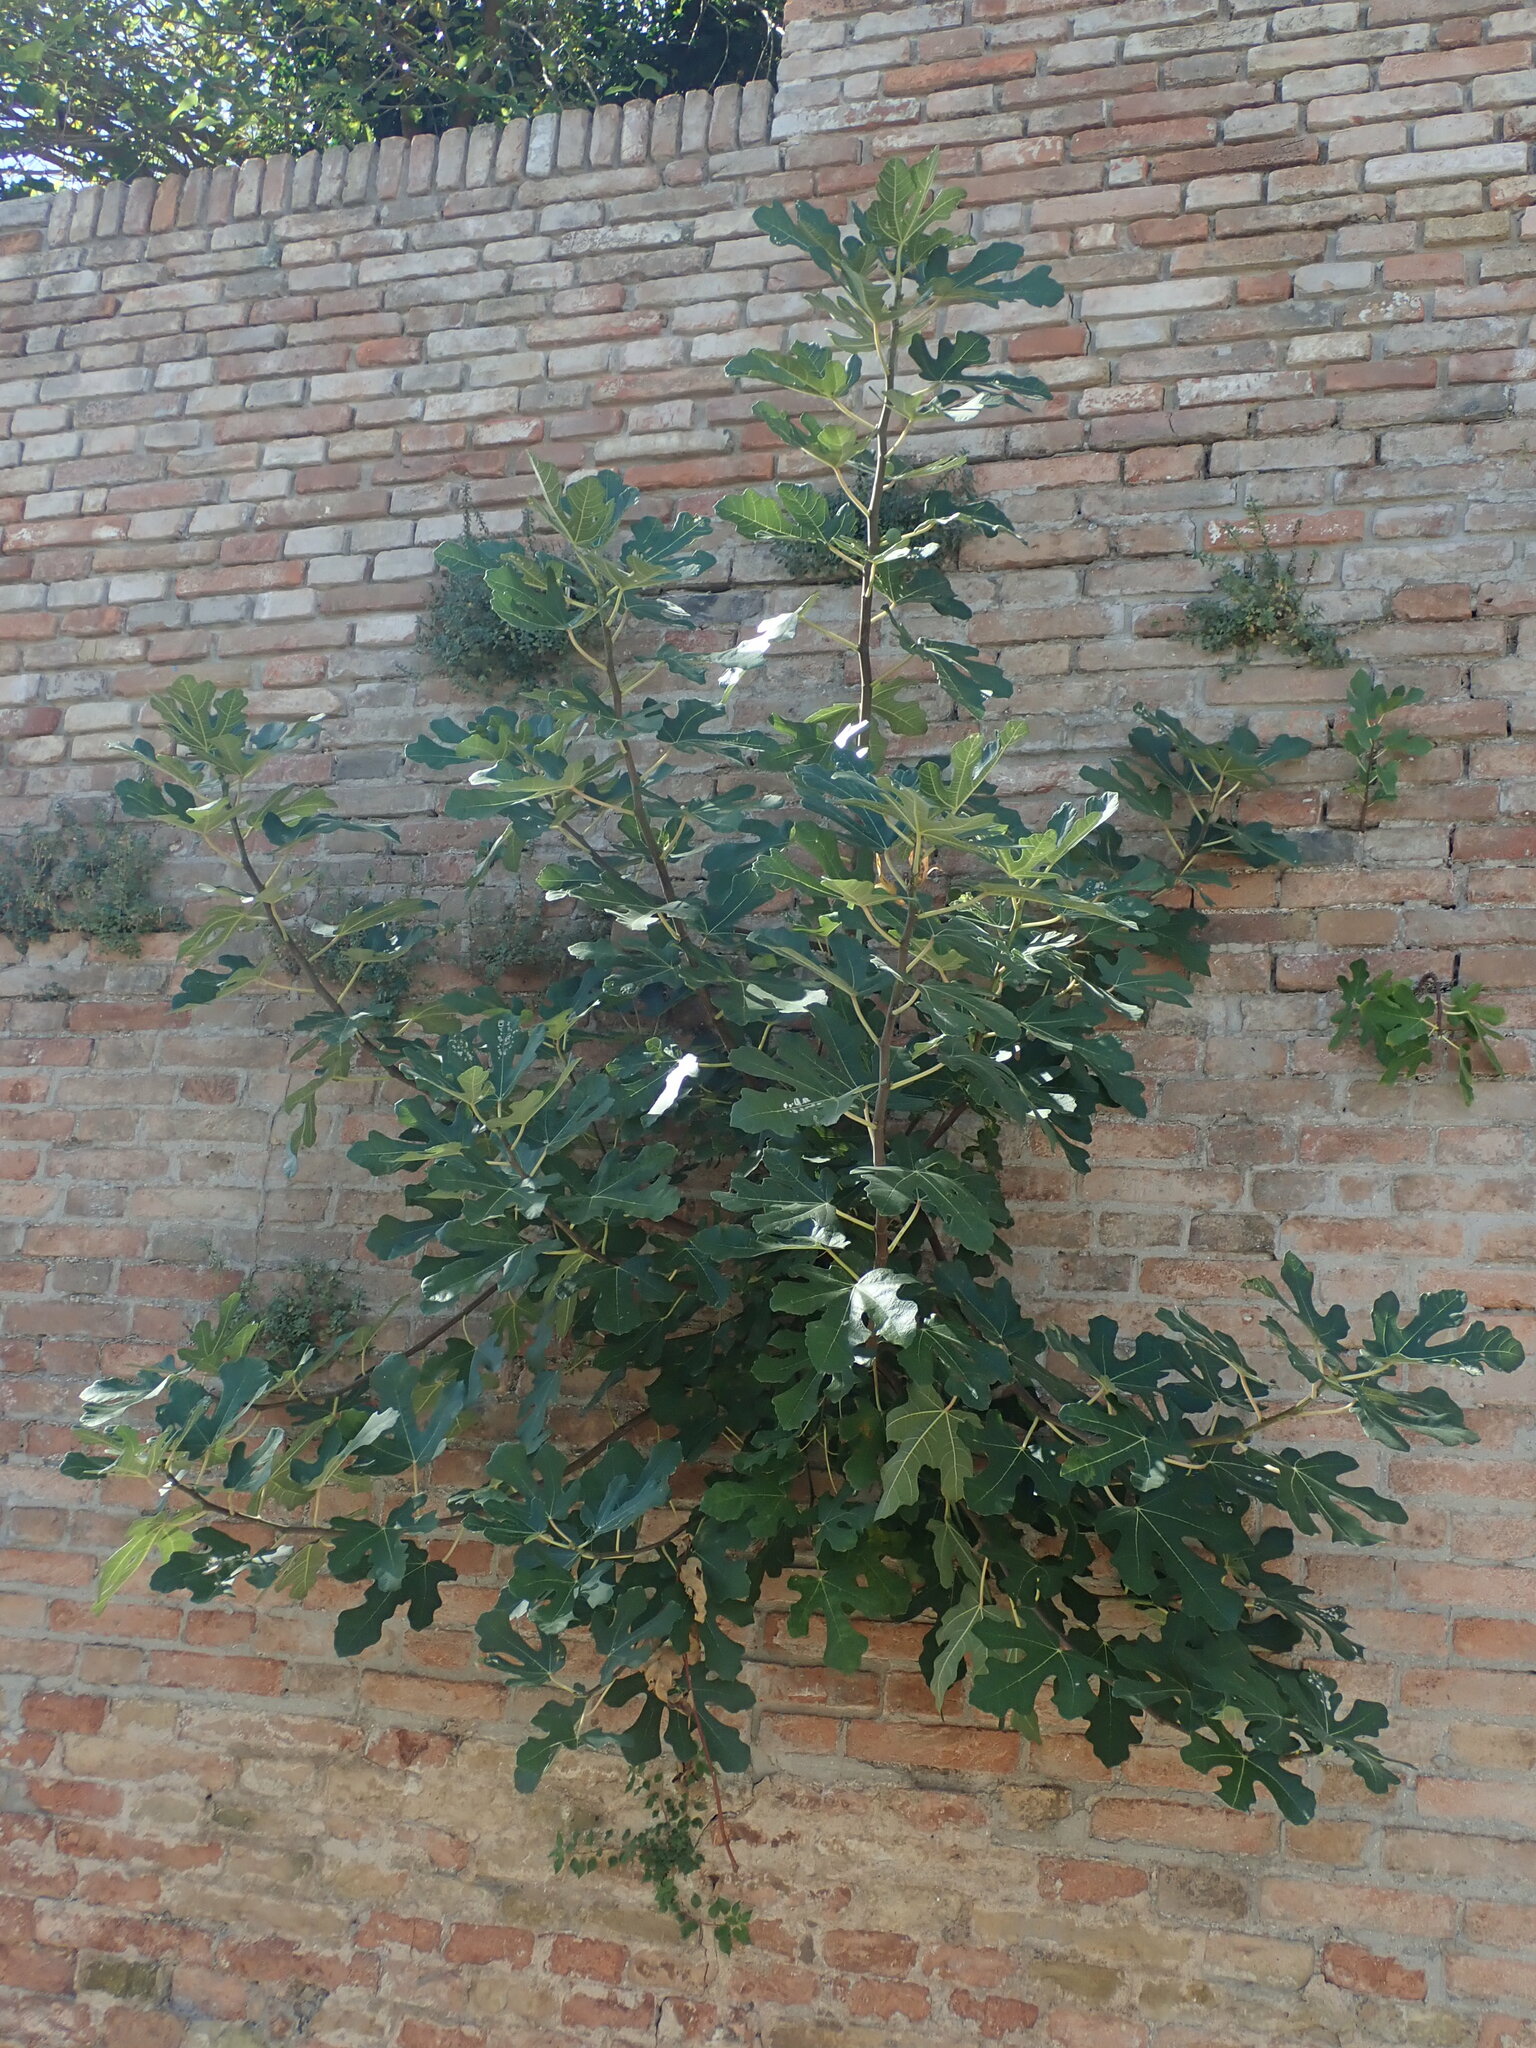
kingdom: Plantae
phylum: Tracheophyta
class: Magnoliopsida
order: Rosales
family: Moraceae
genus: Ficus
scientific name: Ficus carica
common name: Fig
